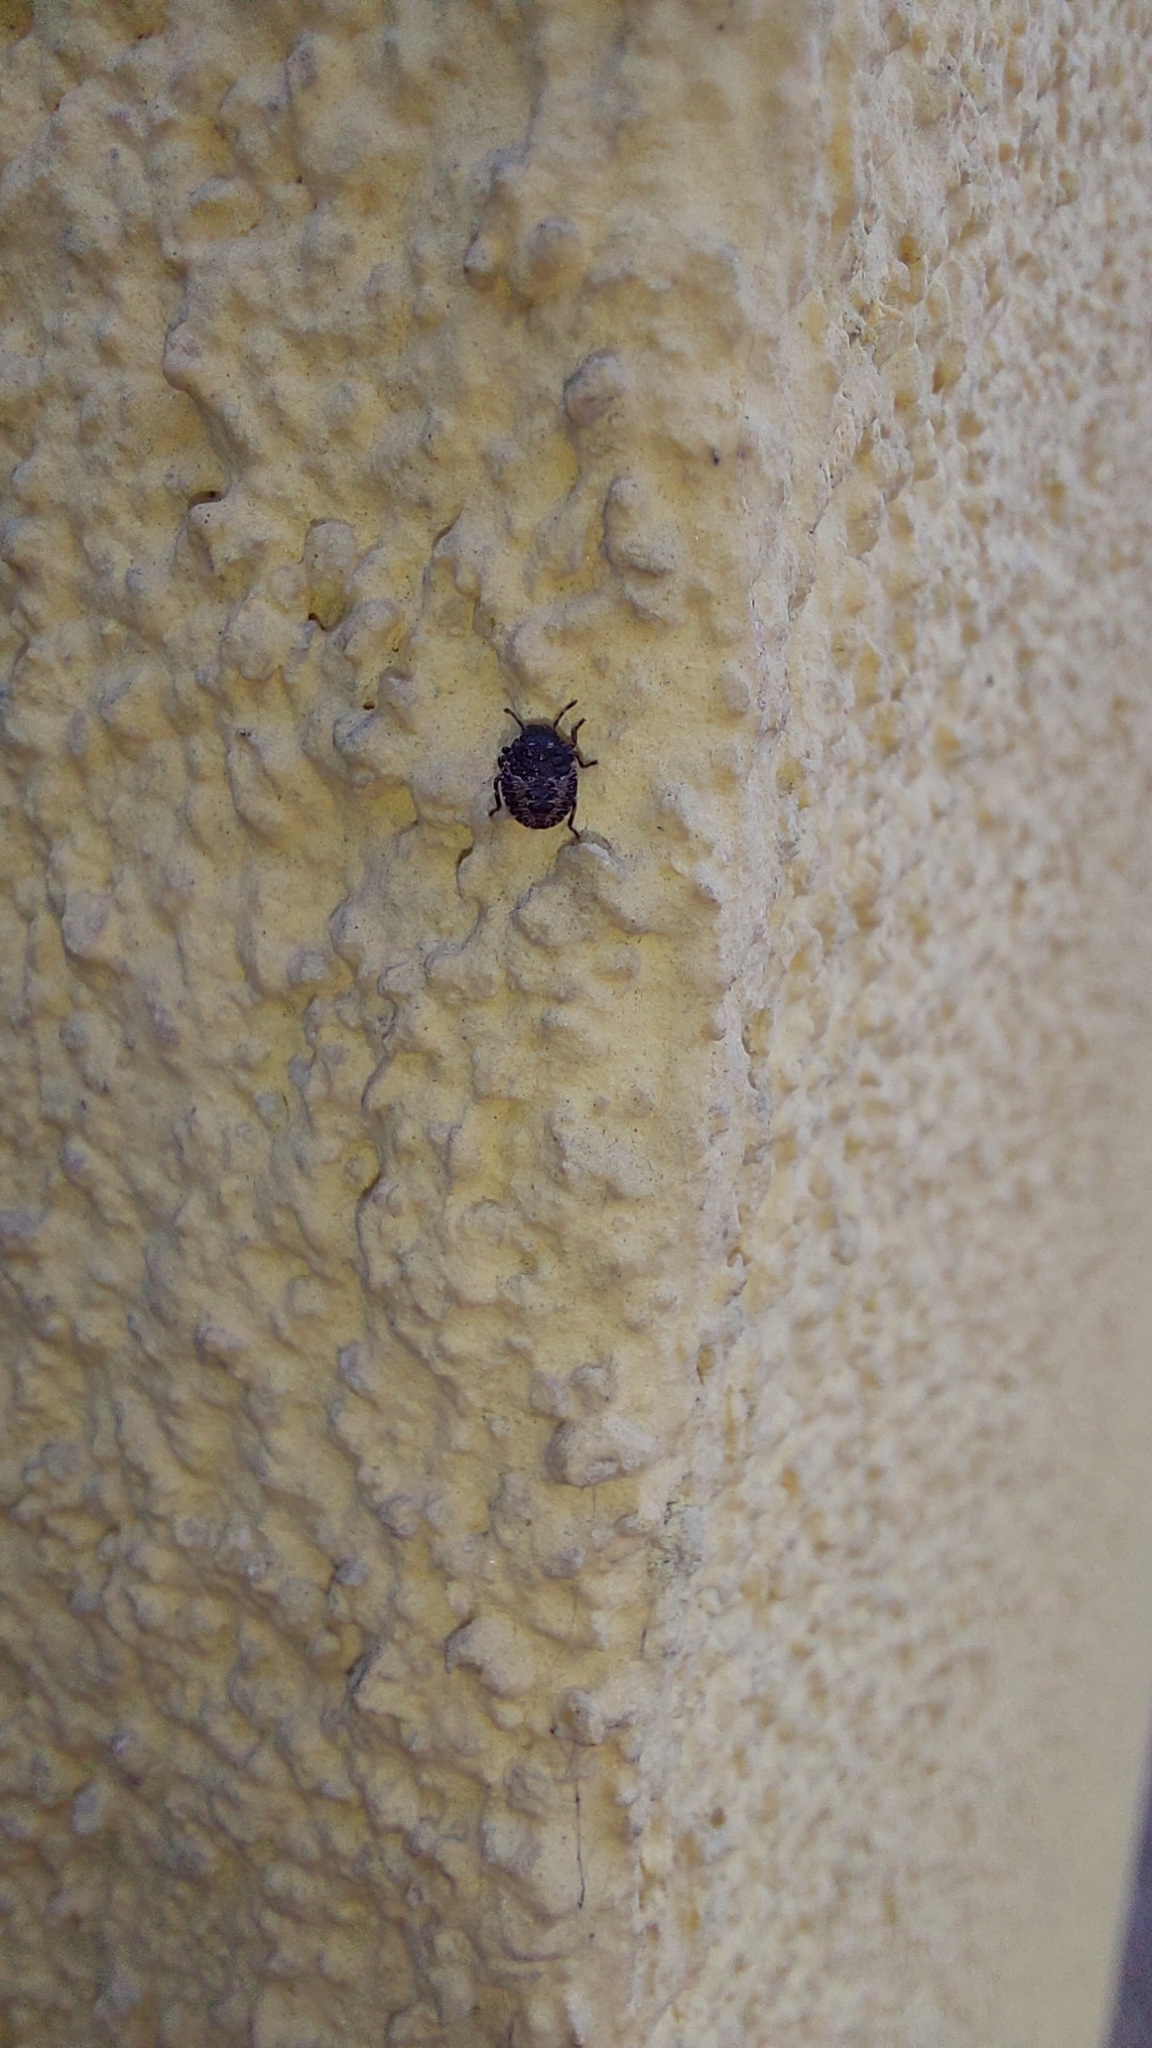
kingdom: Animalia
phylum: Arthropoda
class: Insecta
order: Hemiptera
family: Pentatomidae
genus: Pentatoma
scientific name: Pentatoma rufipes
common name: Forest bug
